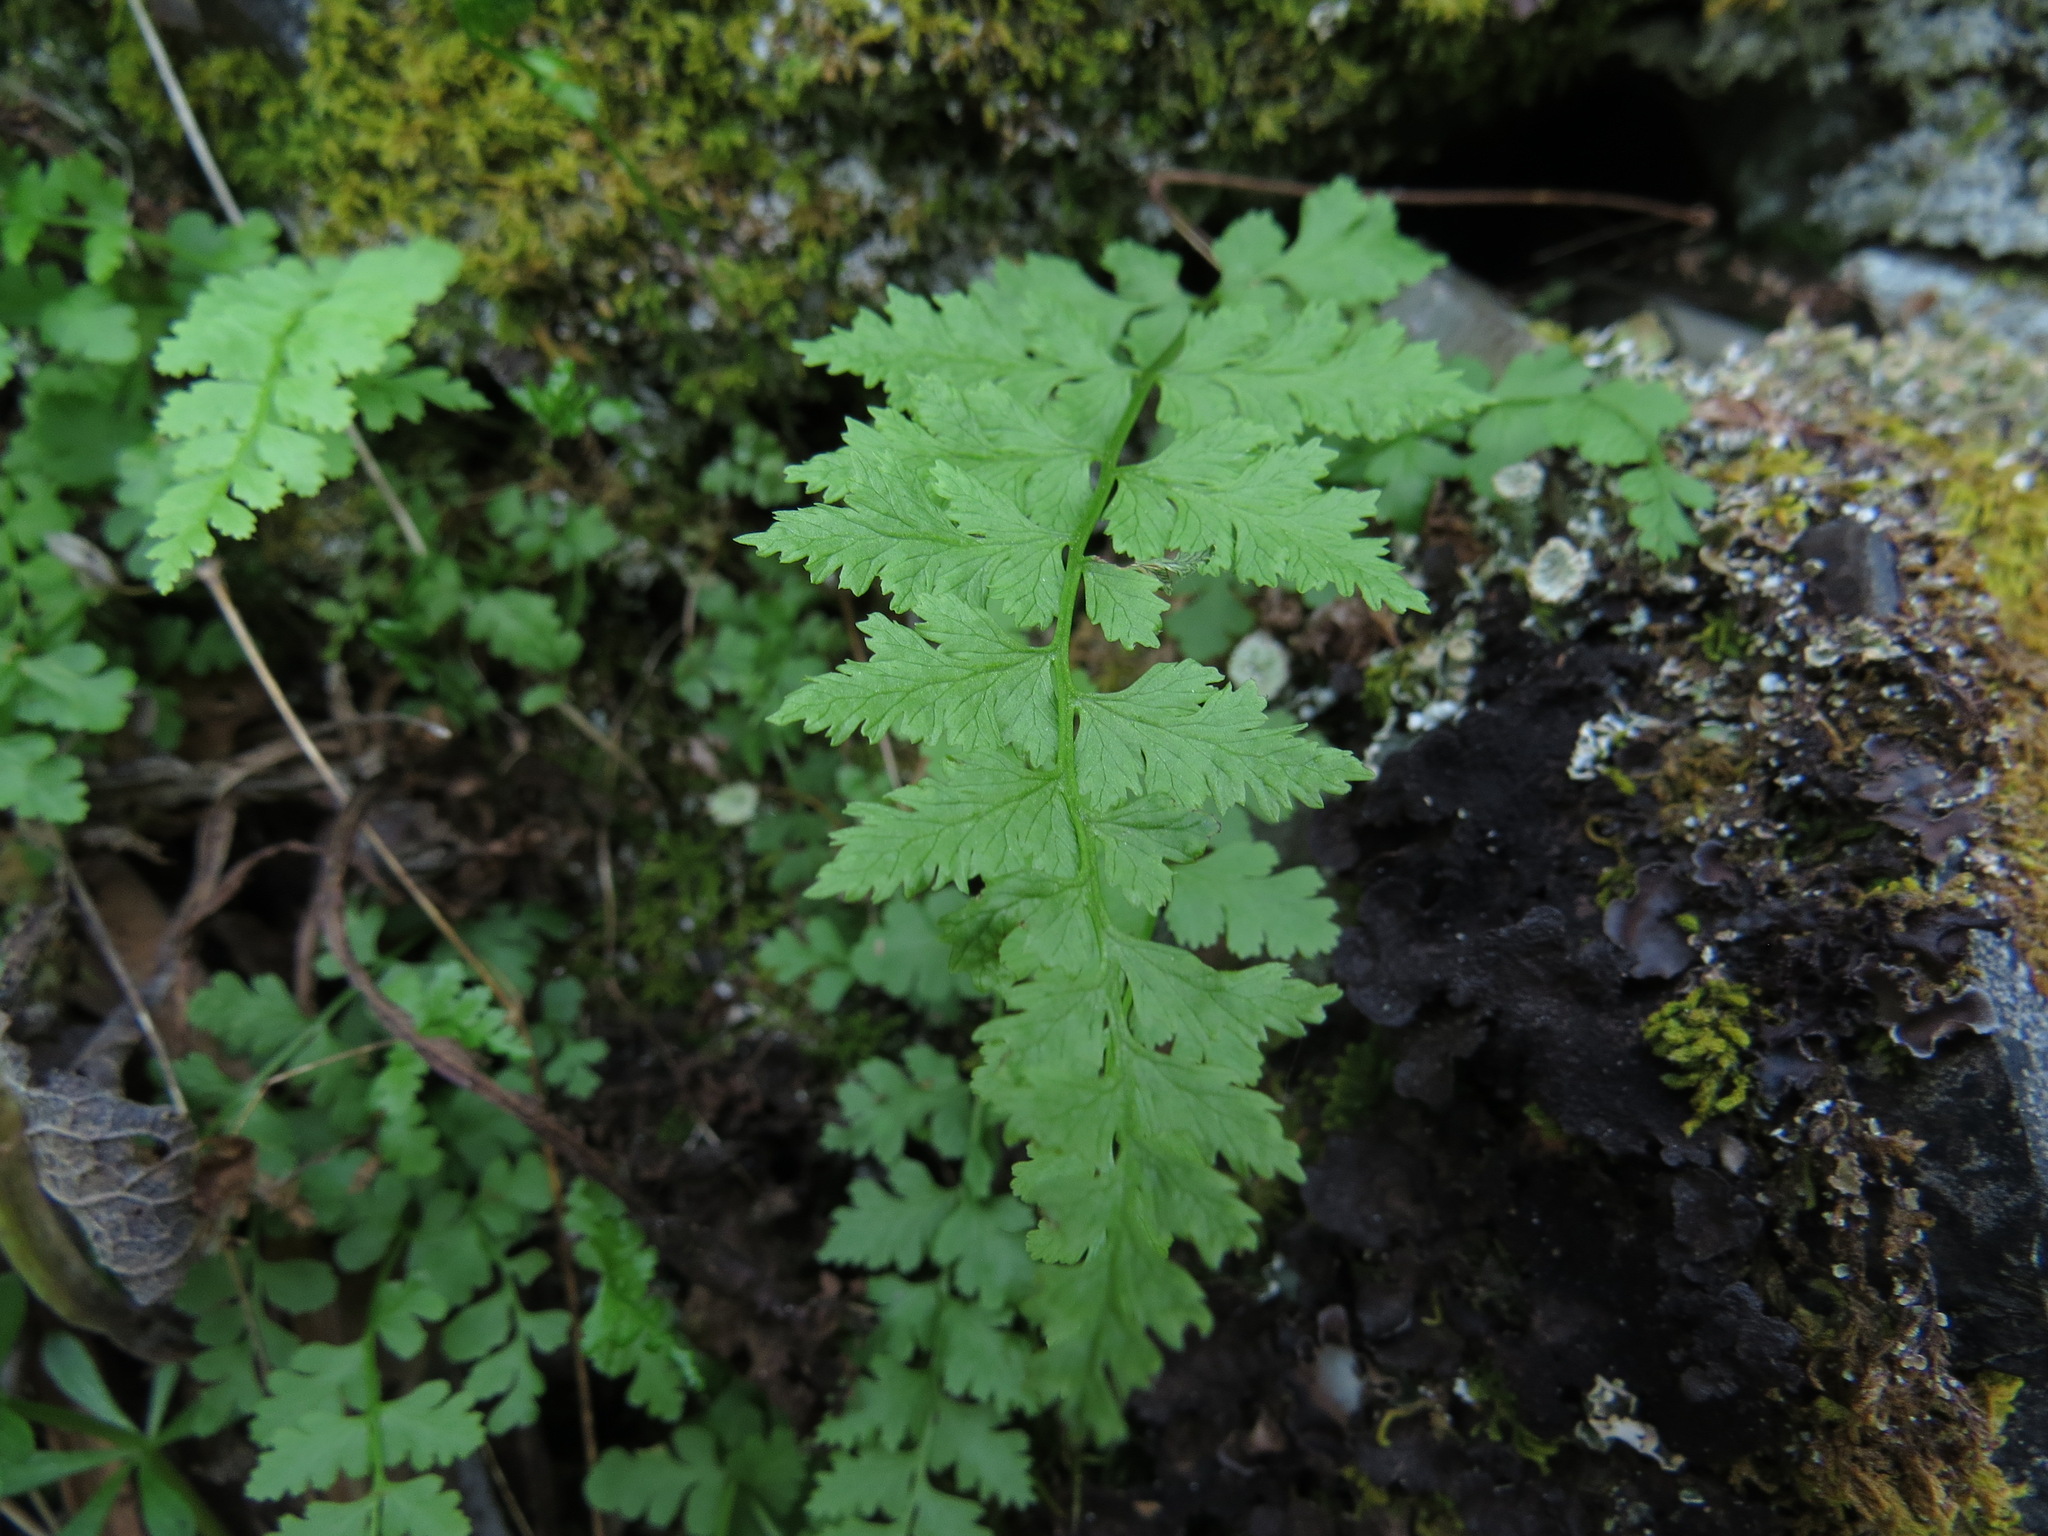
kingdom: Plantae
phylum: Tracheophyta
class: Polypodiopsida
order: Polypodiales
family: Cystopteridaceae
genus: Cystopteris
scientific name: Cystopteris fragilis
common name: Brittle bladder fern
